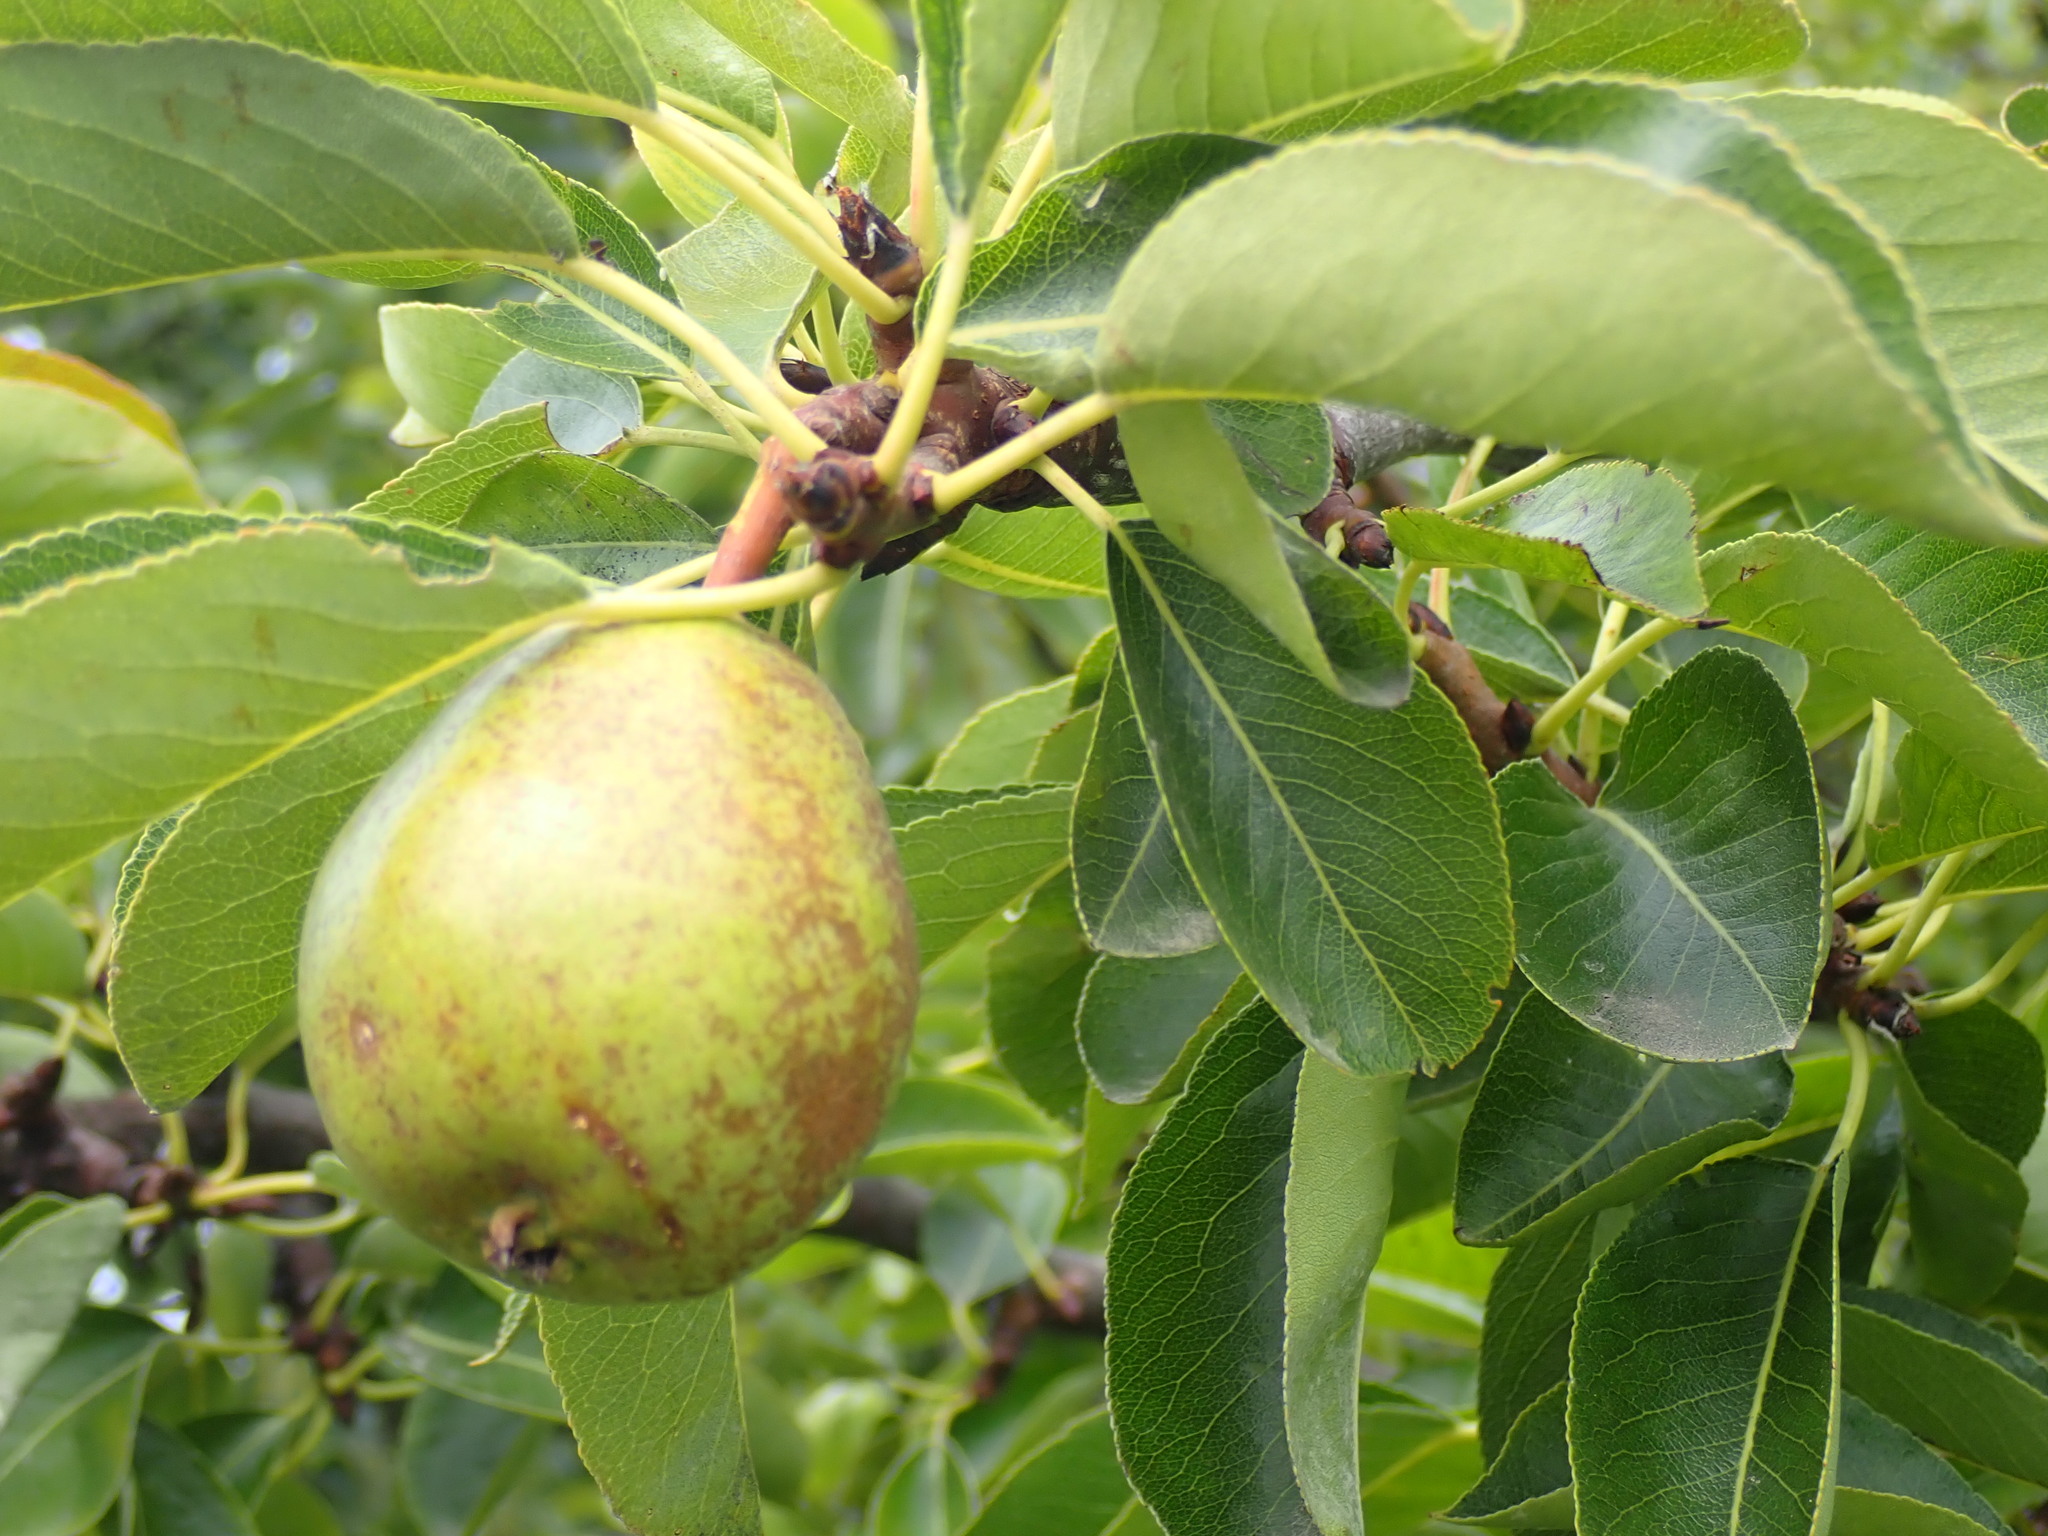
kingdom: Plantae
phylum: Tracheophyta
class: Magnoliopsida
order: Rosales
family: Rosaceae
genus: Pyrus
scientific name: Pyrus communis
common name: Pear
